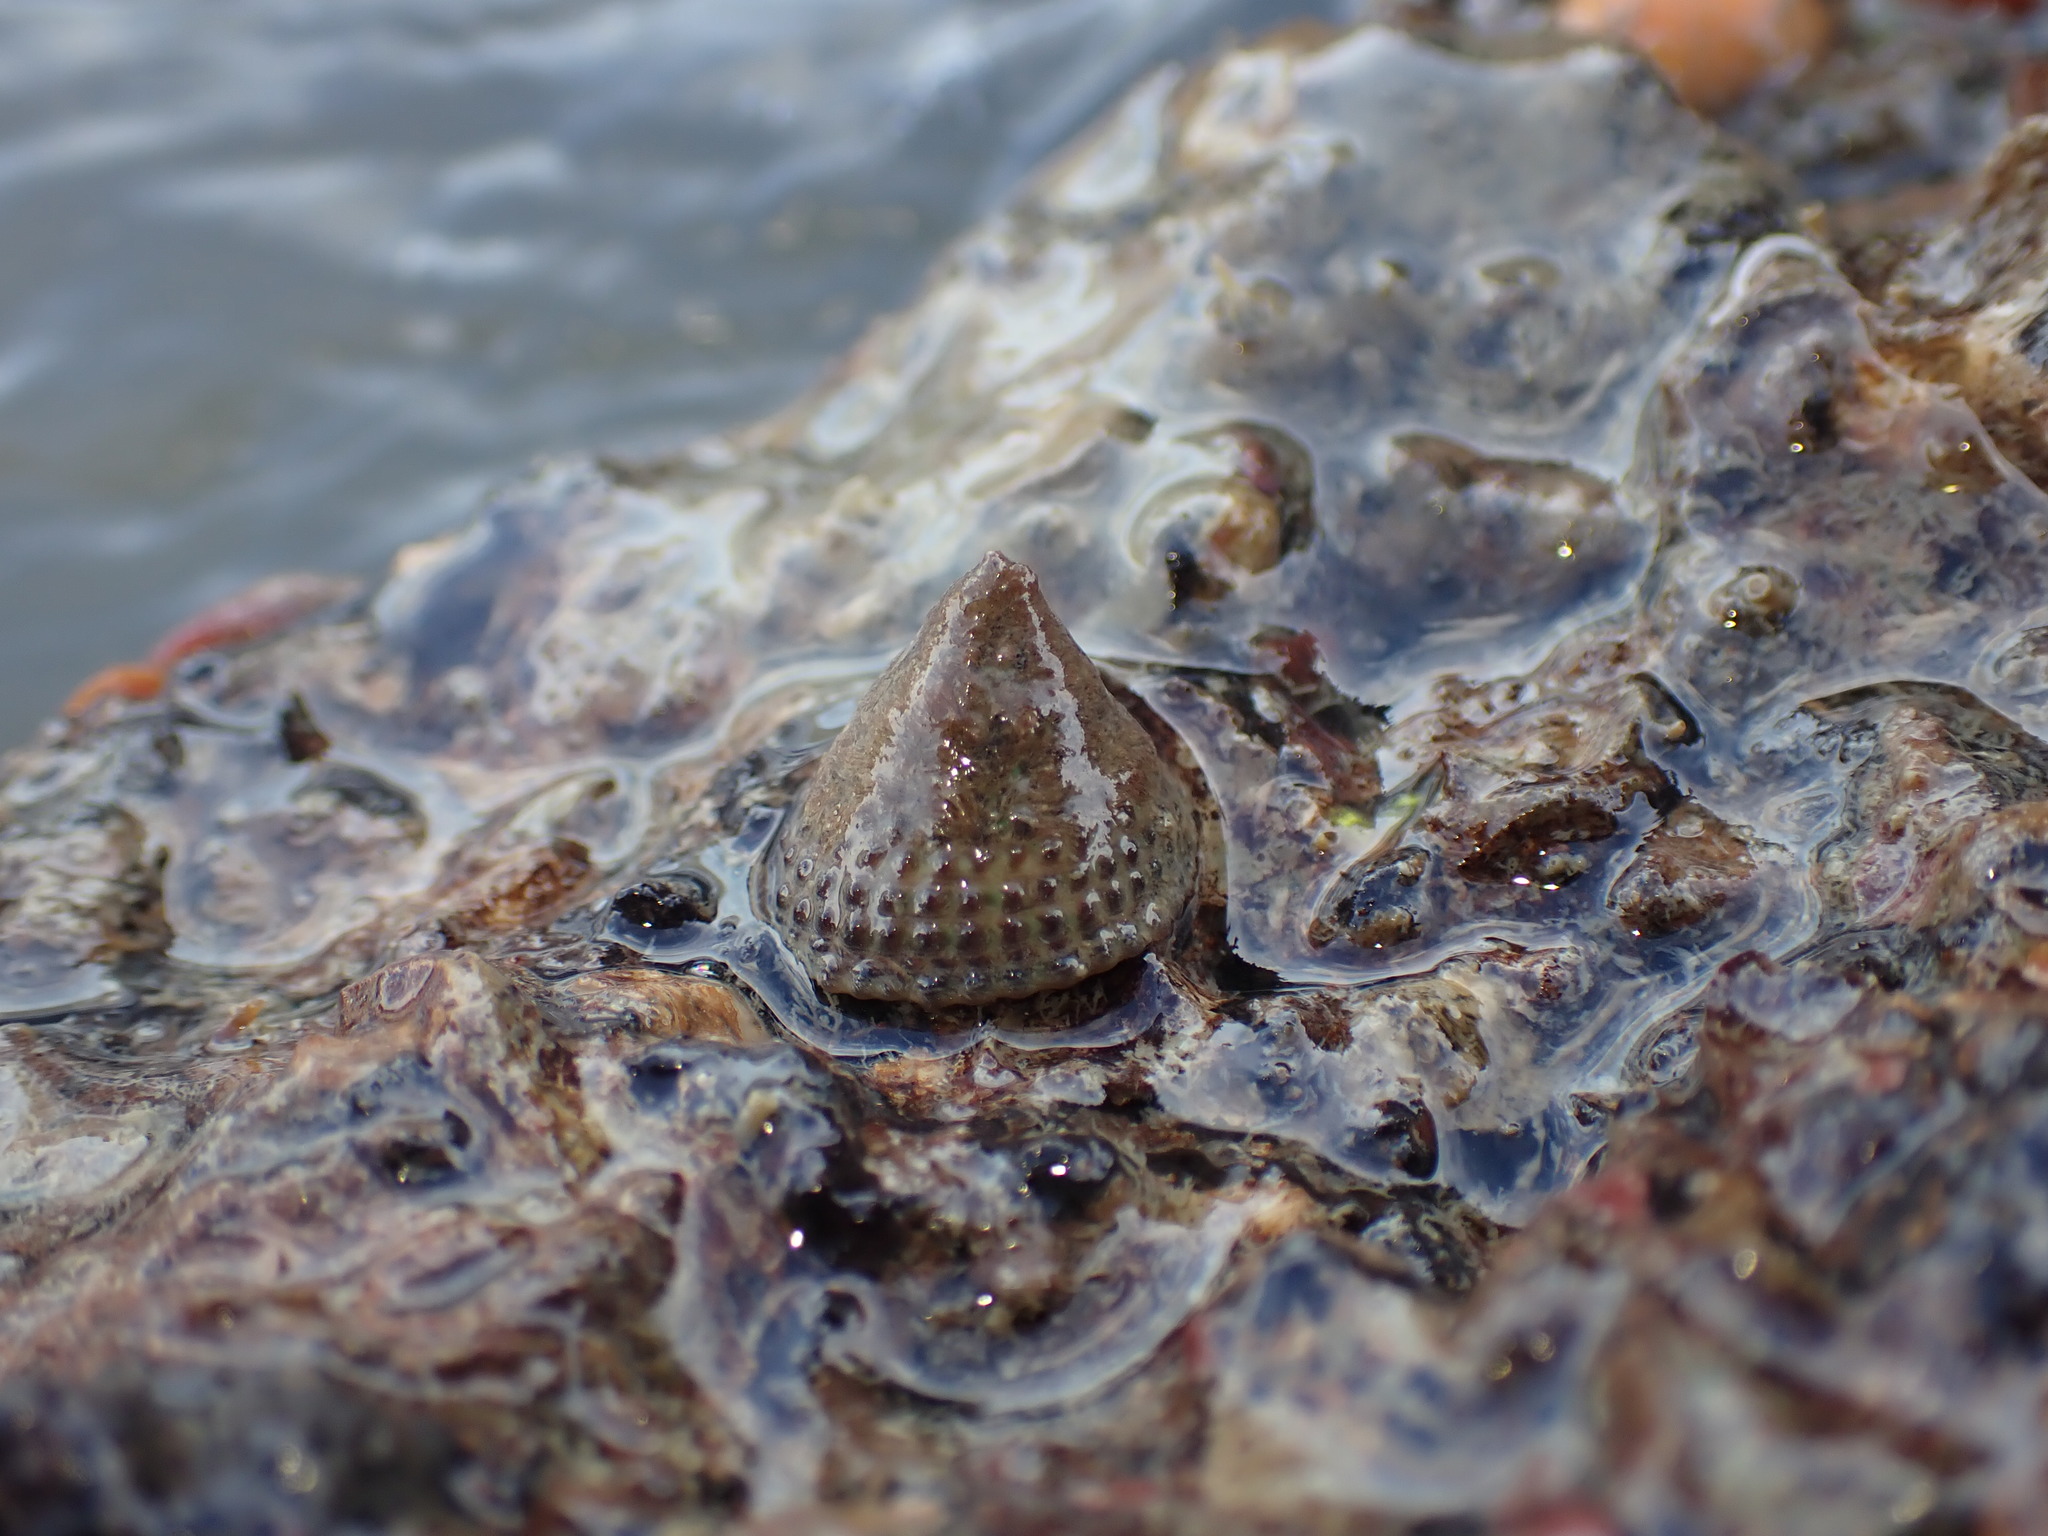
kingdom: Animalia
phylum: Mollusca
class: Gastropoda
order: Trochida
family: Trochidae
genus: Coelotrochus
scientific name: Coelotrochus viridis
